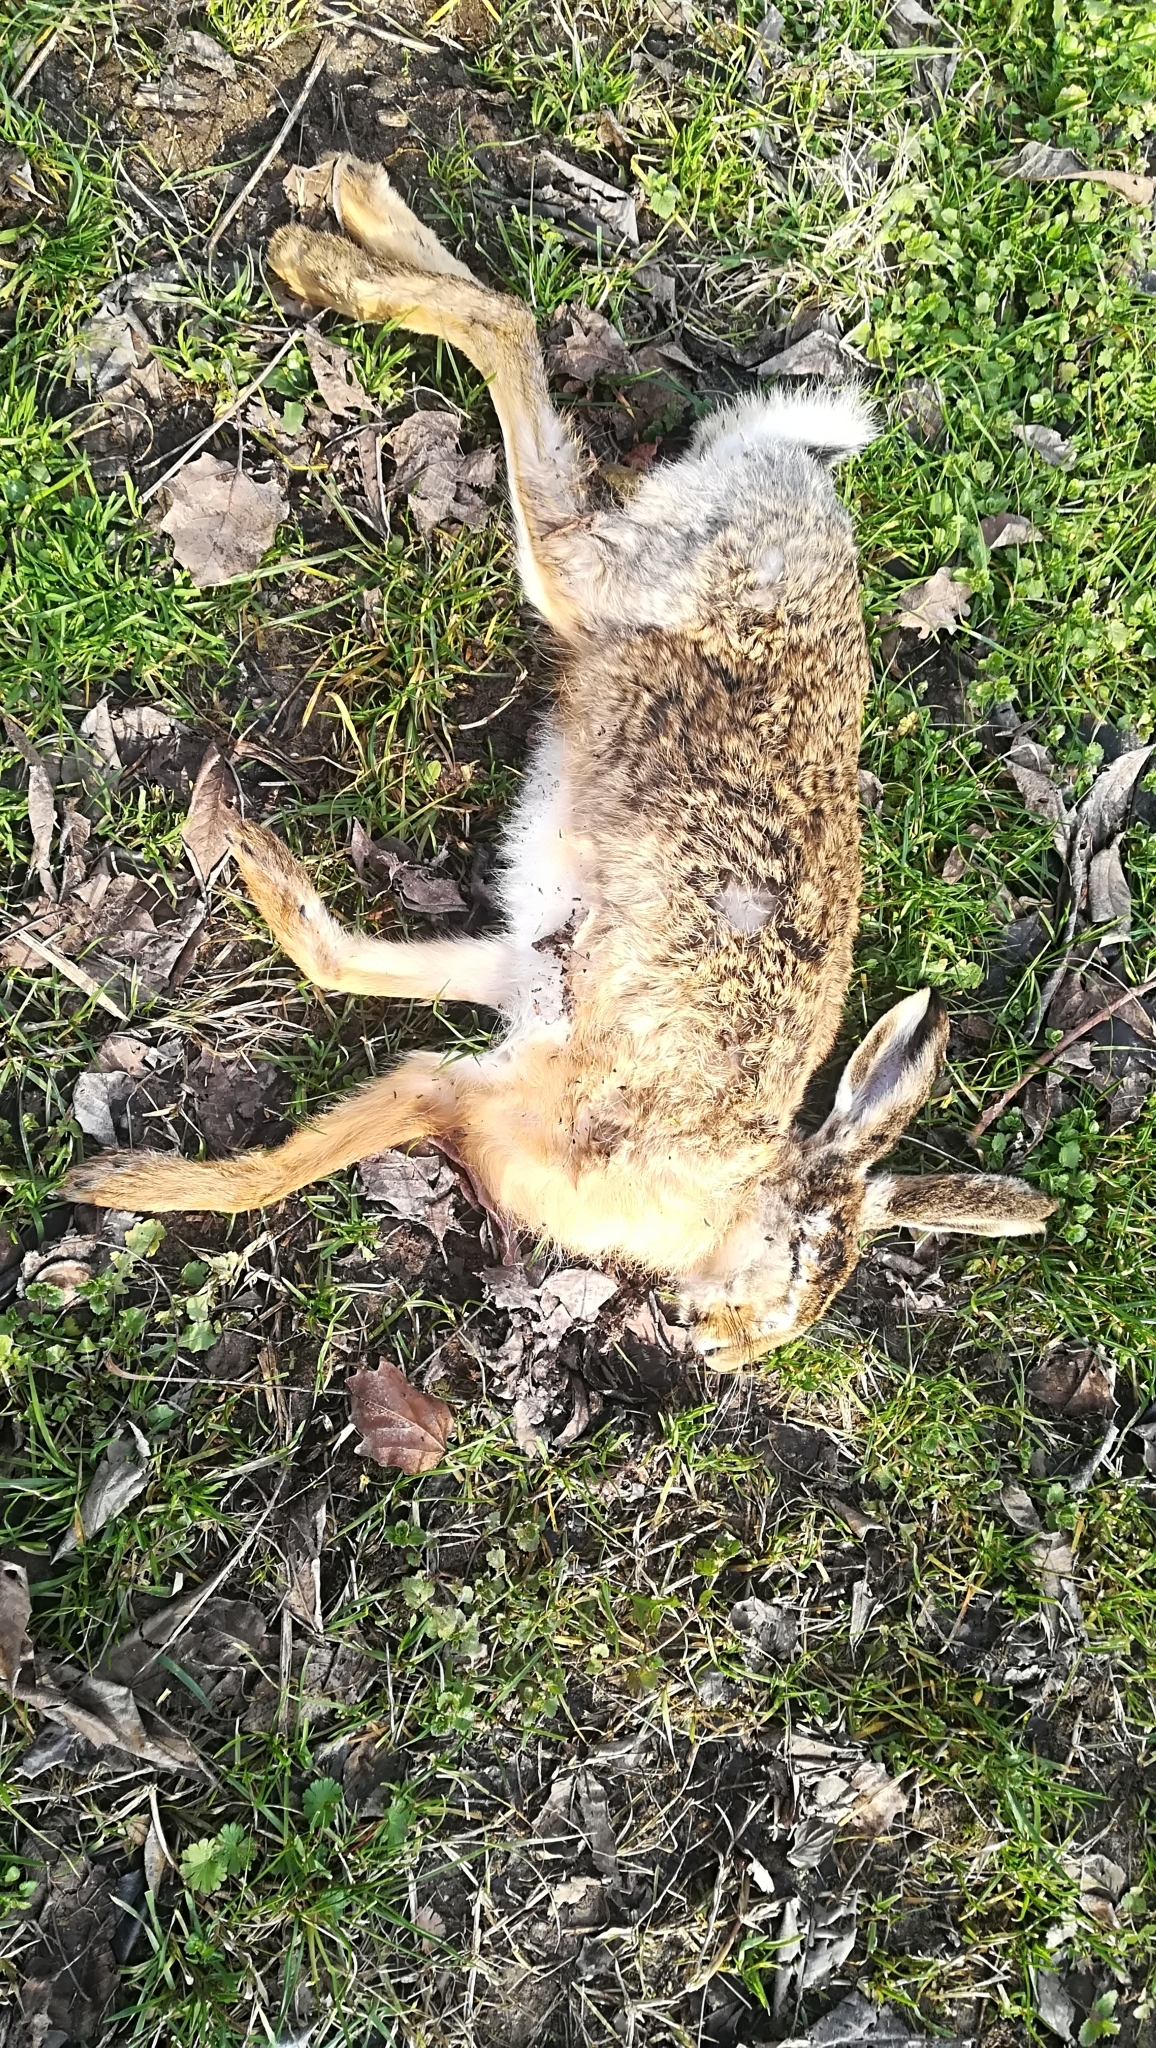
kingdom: Animalia
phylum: Chordata
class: Mammalia
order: Lagomorpha
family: Leporidae
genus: Lepus
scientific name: Lepus europaeus
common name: European hare
